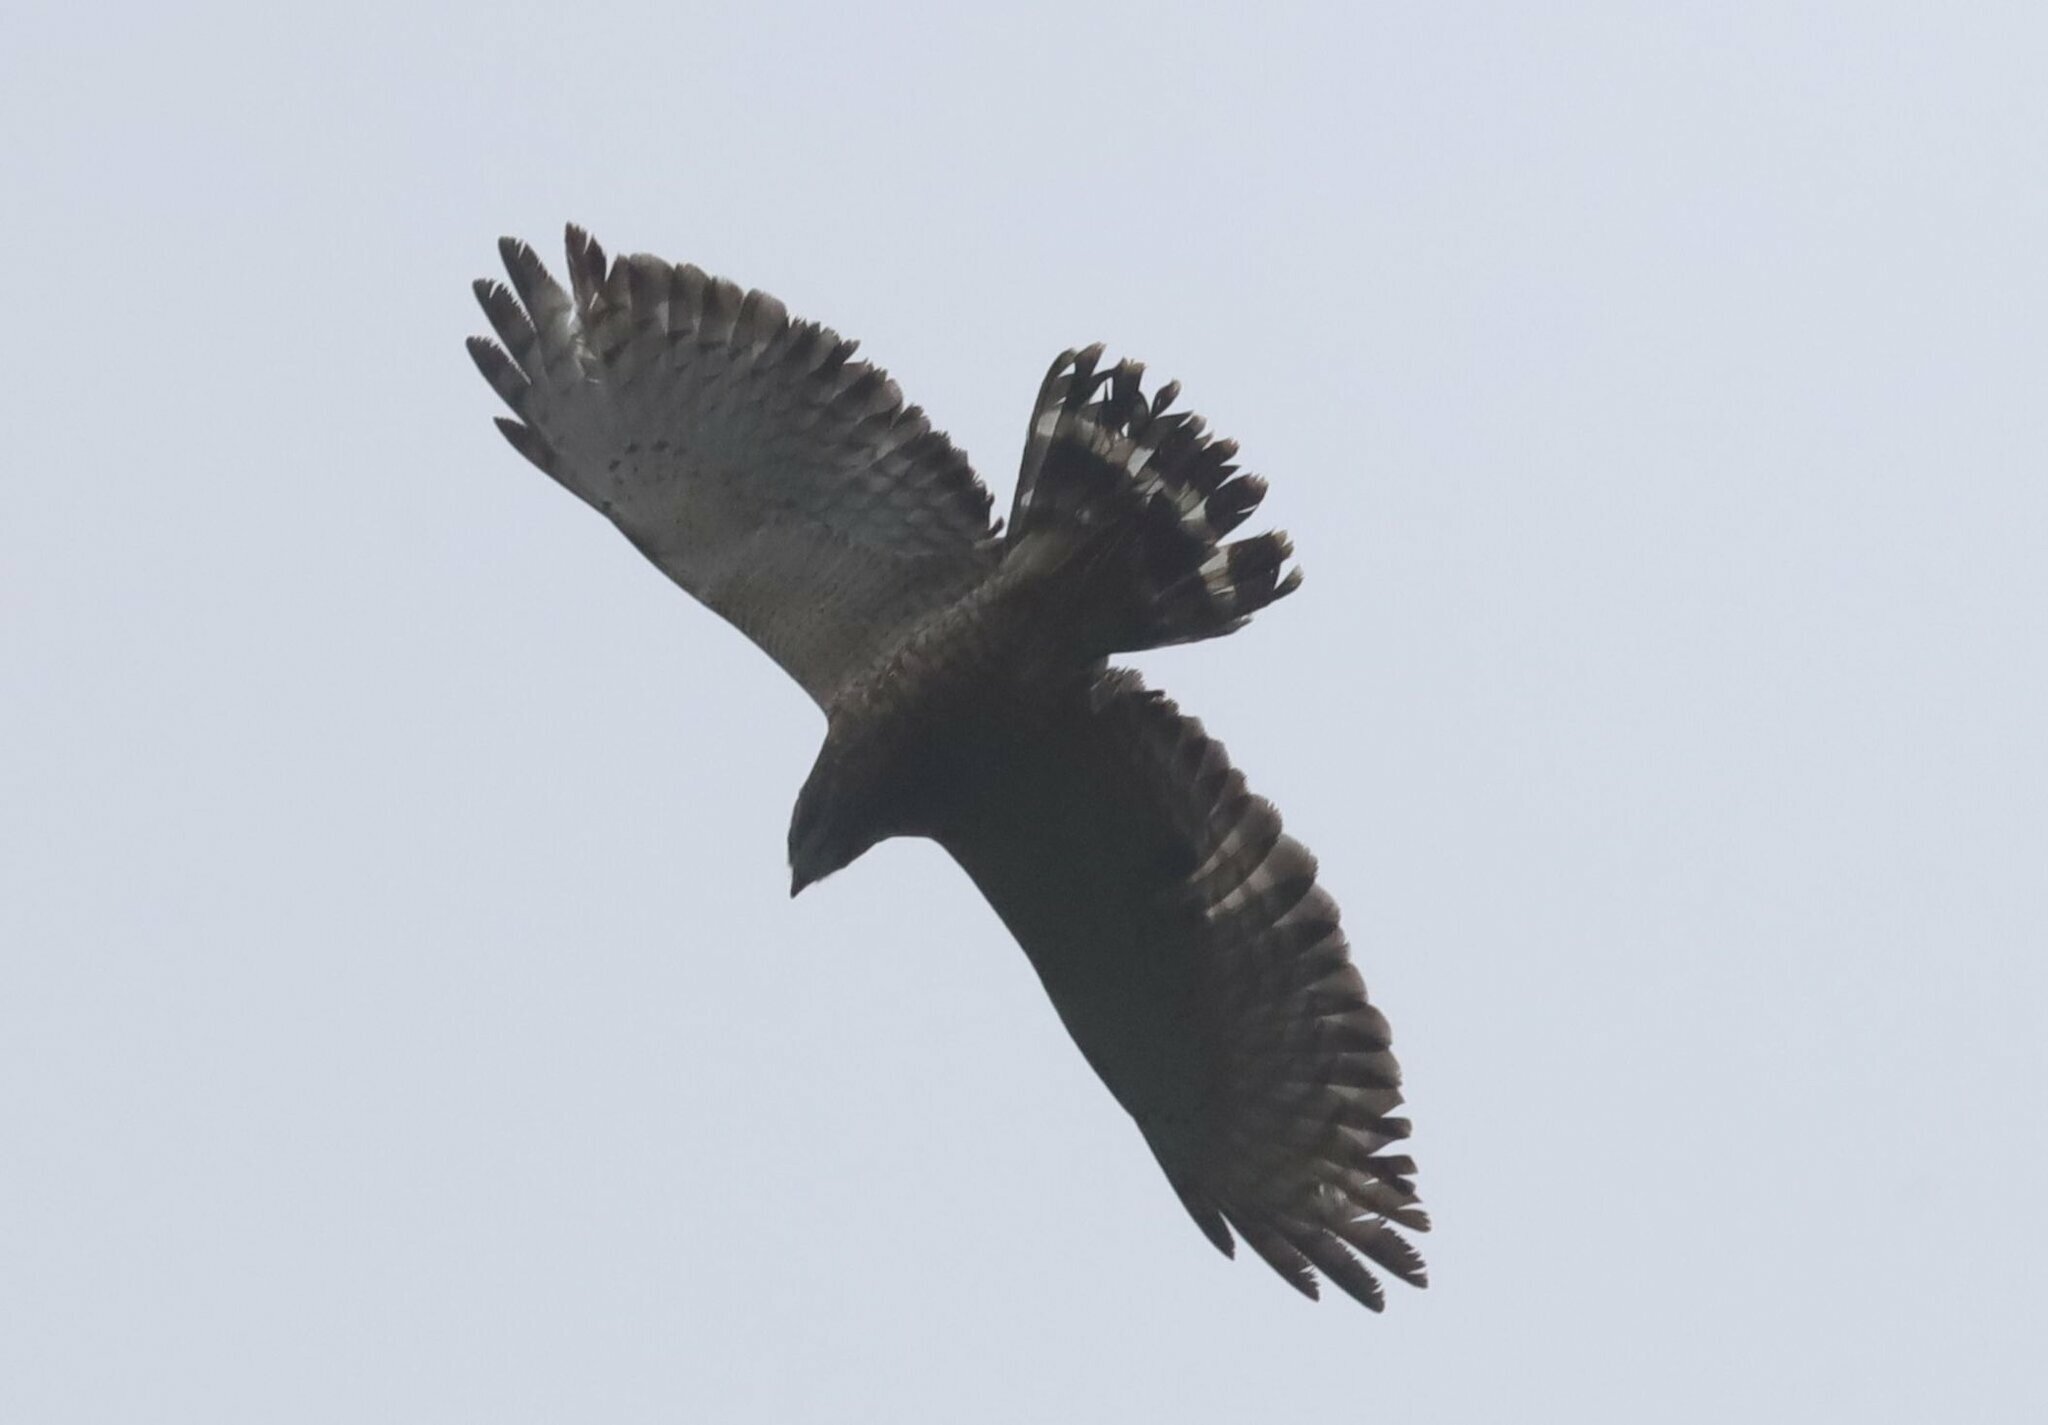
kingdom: Animalia
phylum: Chordata
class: Aves
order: Accipitriformes
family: Accipitridae
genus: Buteo
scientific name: Buteo platypterus
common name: Broad-winged hawk
